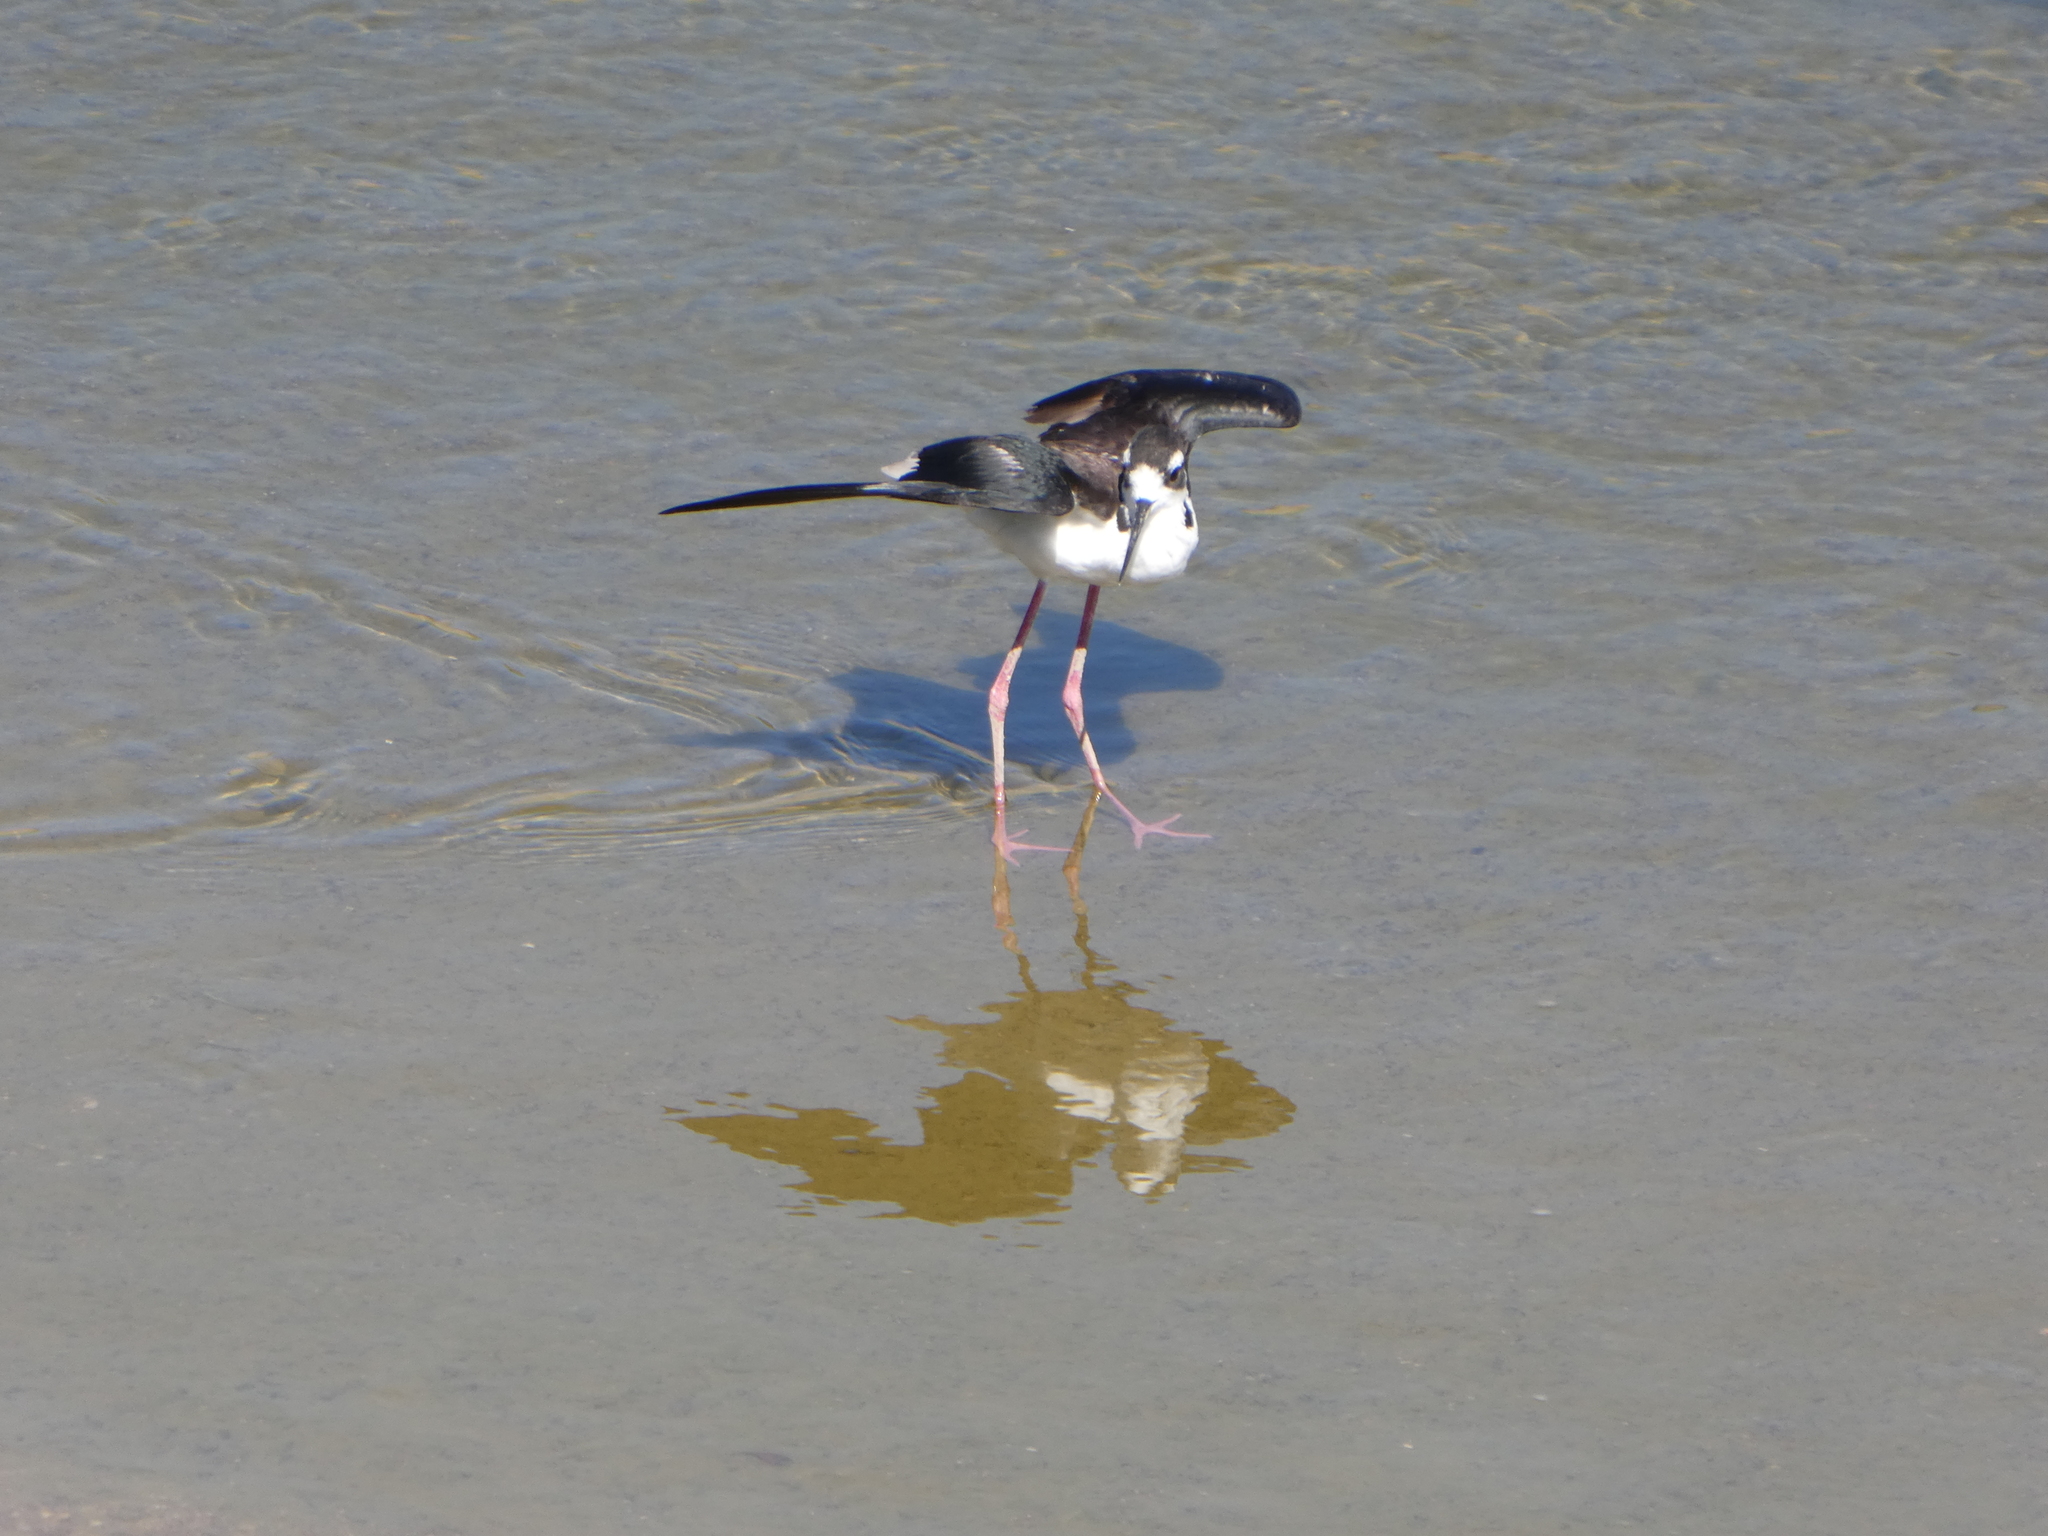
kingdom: Animalia
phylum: Chordata
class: Aves
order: Charadriiformes
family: Recurvirostridae
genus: Himantopus
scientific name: Himantopus mexicanus
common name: Black-necked stilt
